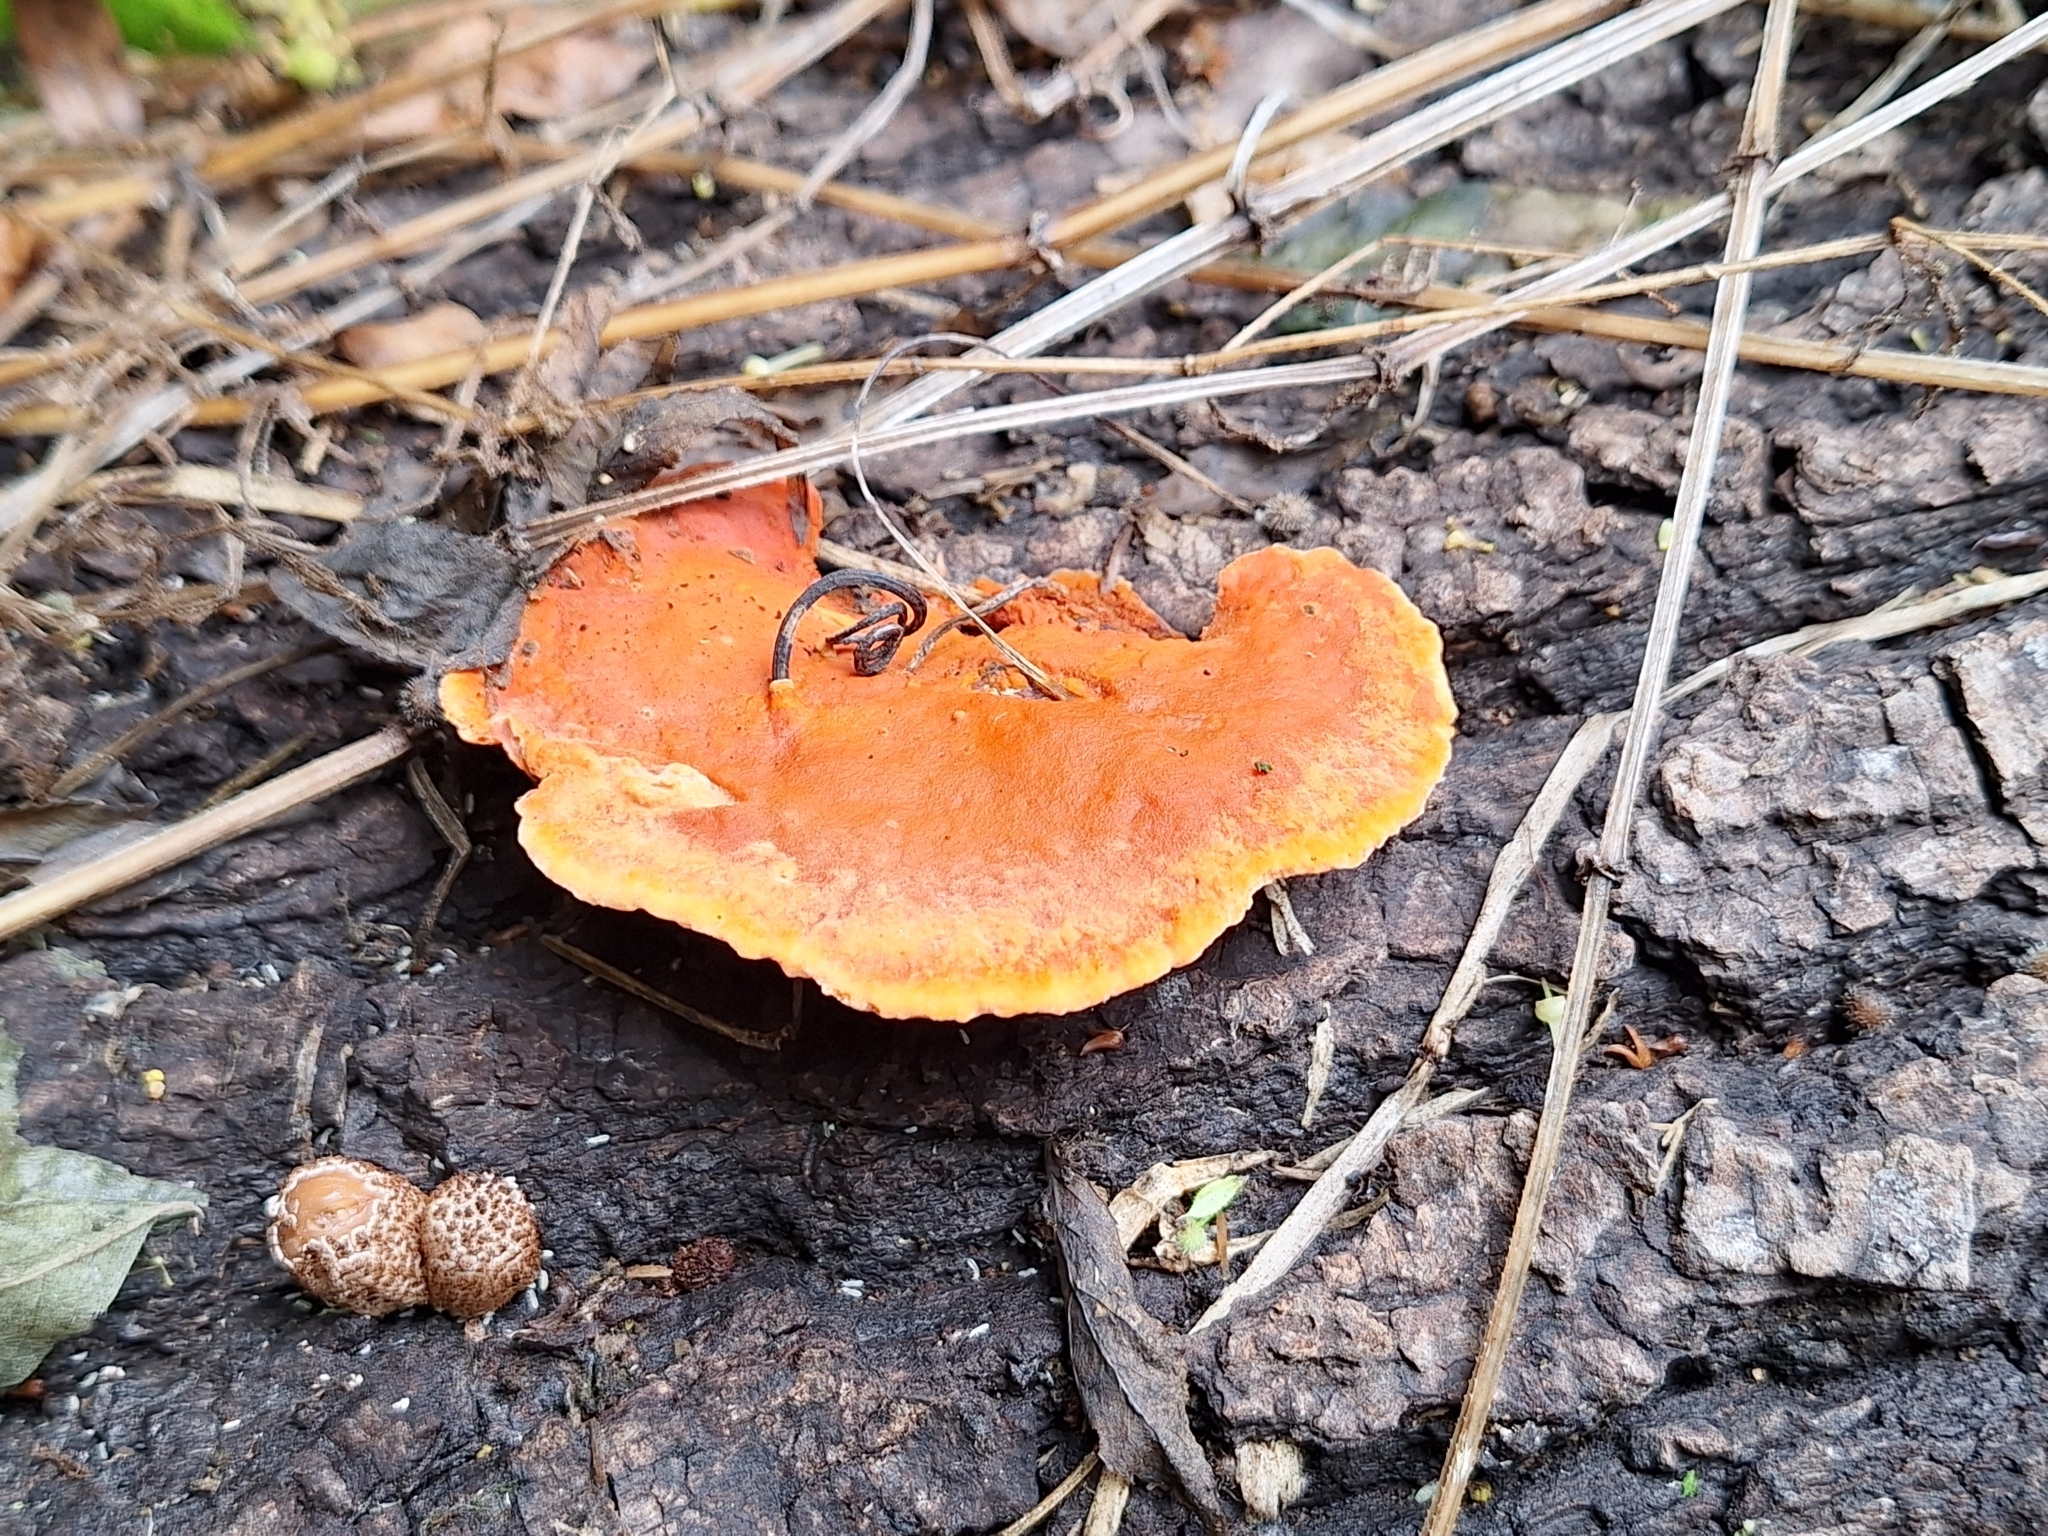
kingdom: Fungi
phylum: Basidiomycota
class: Agaricomycetes
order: Polyporales
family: Polyporaceae
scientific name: Polyporaceae
